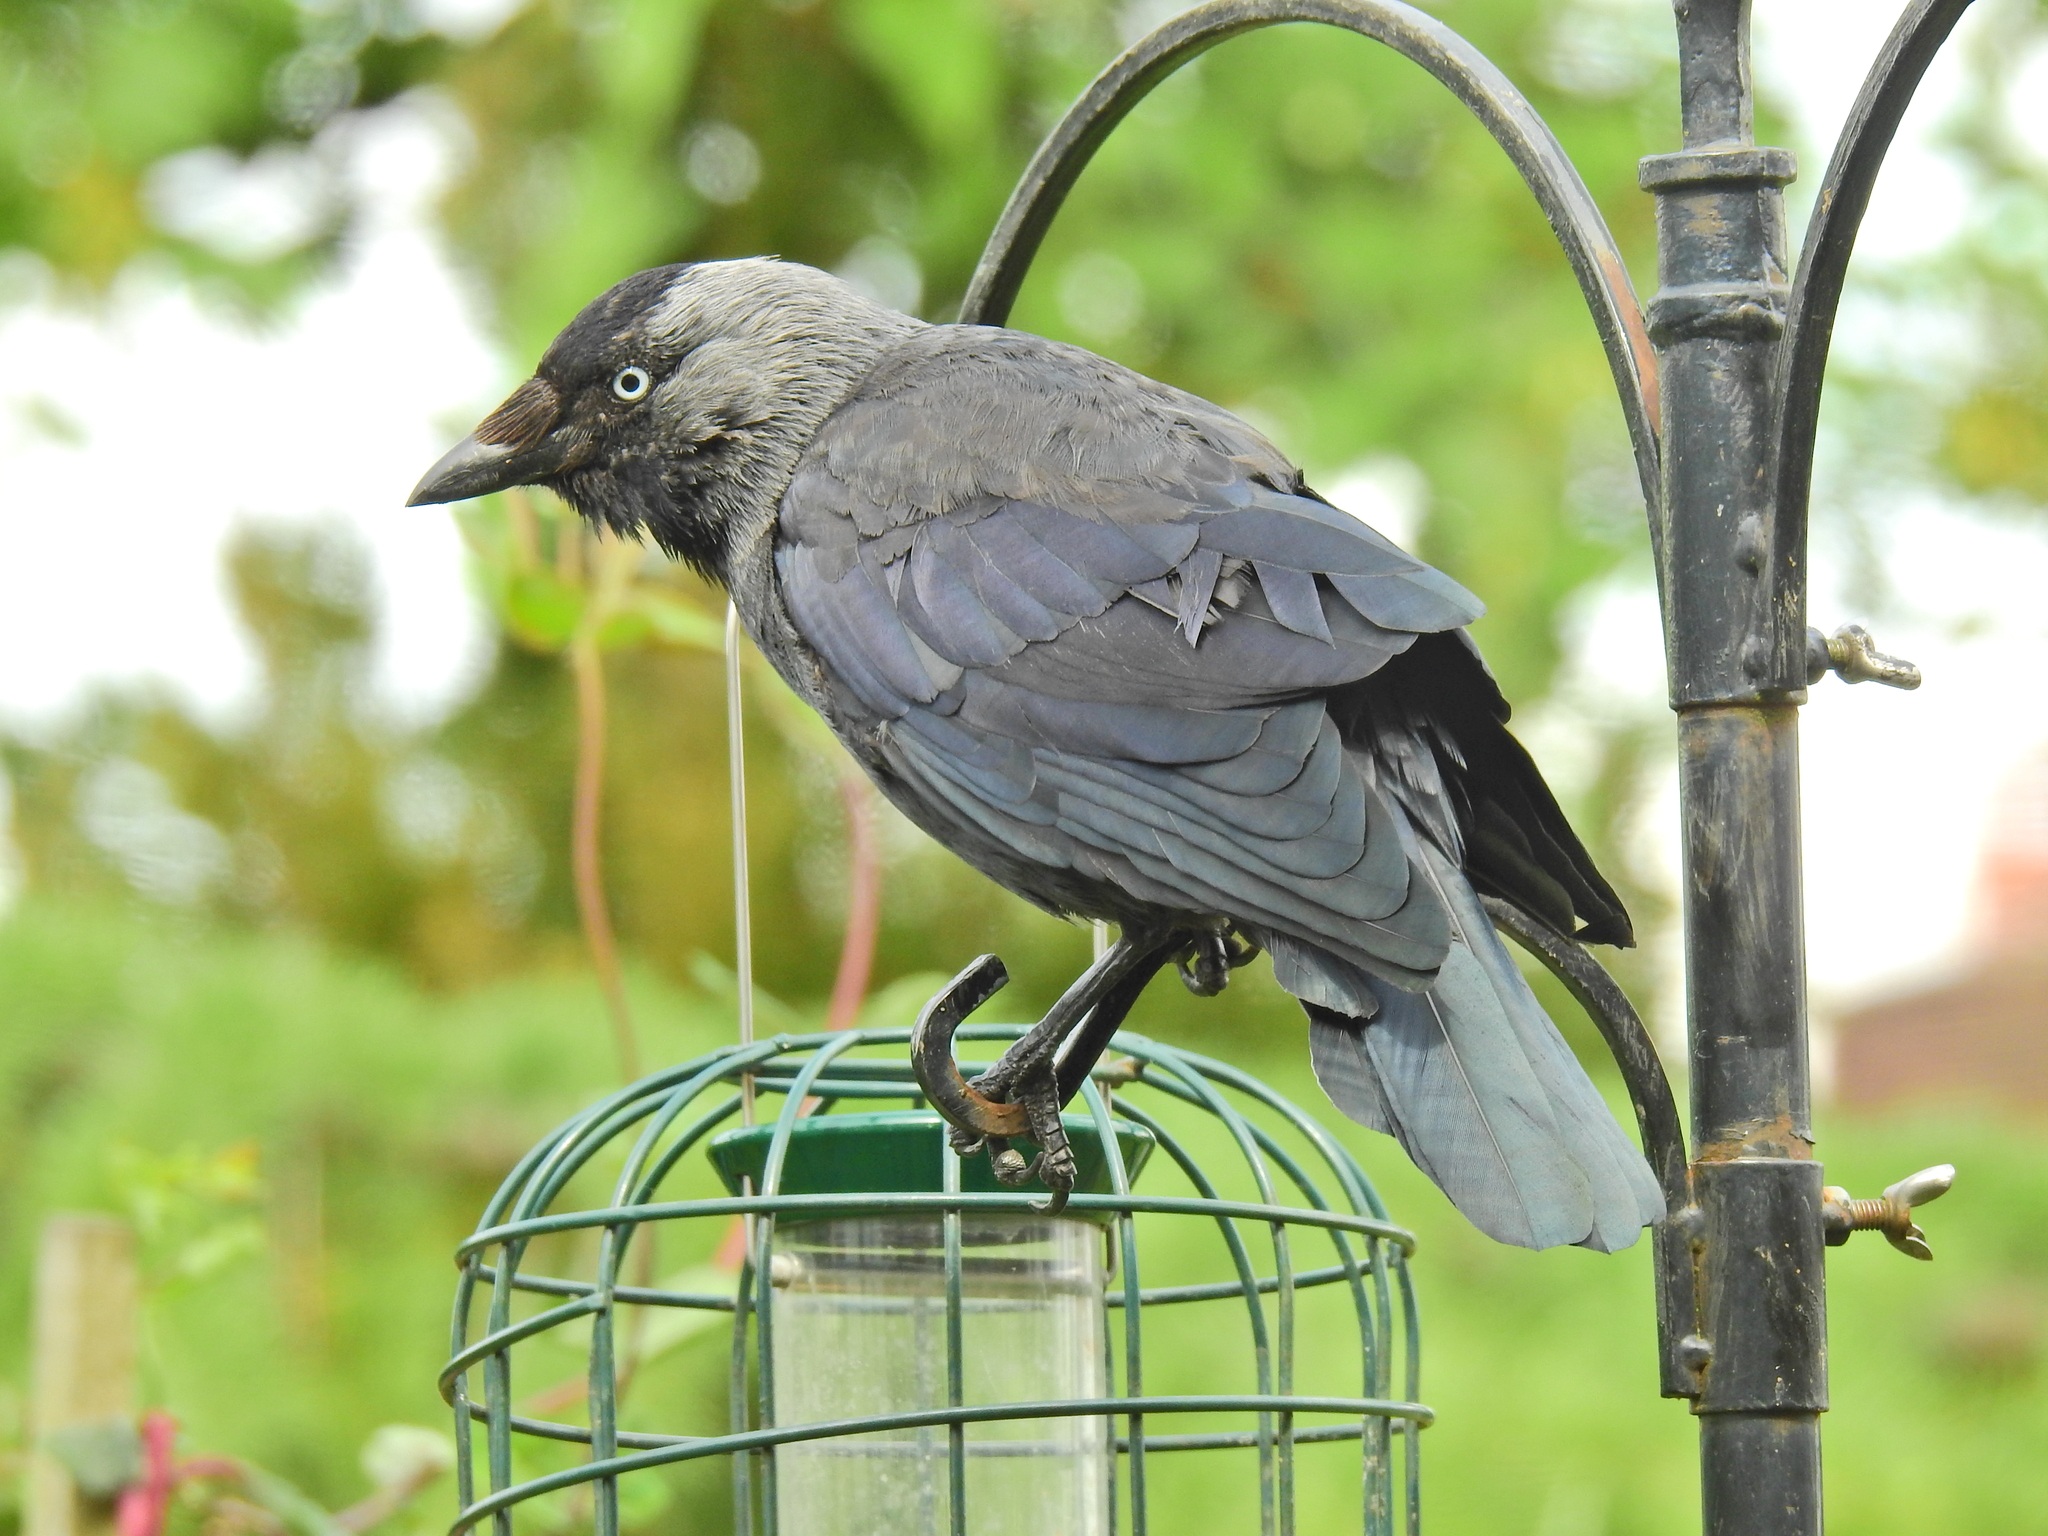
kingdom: Animalia
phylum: Chordata
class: Aves
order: Passeriformes
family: Corvidae
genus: Coloeus
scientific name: Coloeus monedula
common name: Western jackdaw
